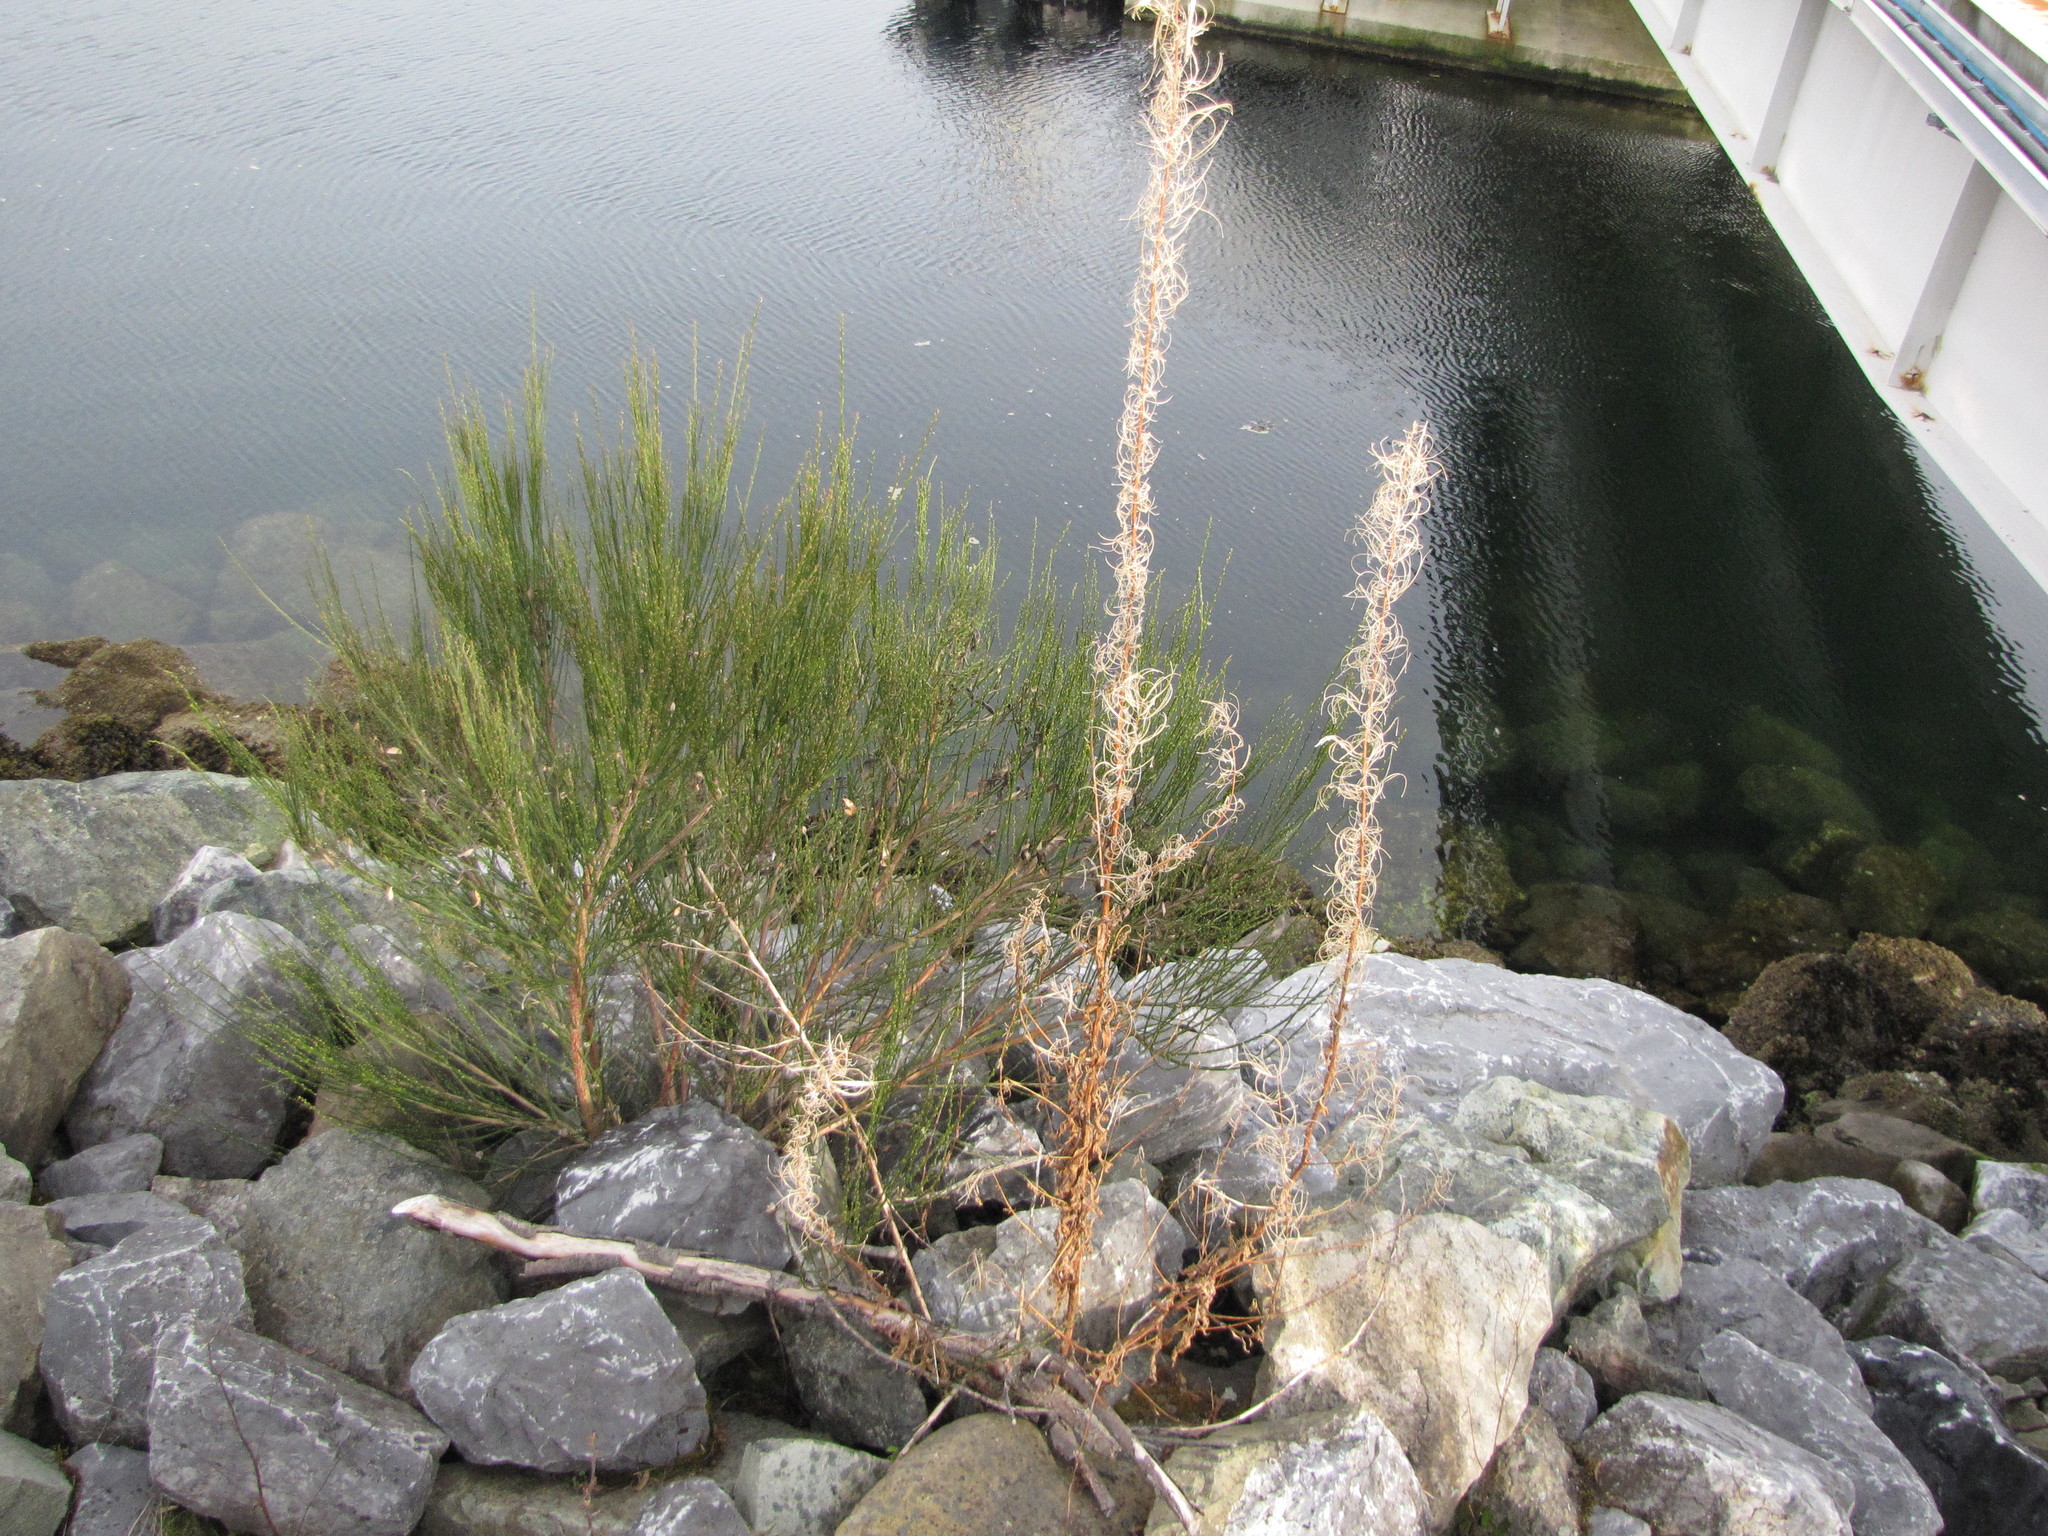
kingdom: Plantae
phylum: Tracheophyta
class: Magnoliopsida
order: Myrtales
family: Onagraceae
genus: Chamaenerion
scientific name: Chamaenerion angustifolium
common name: Fireweed
